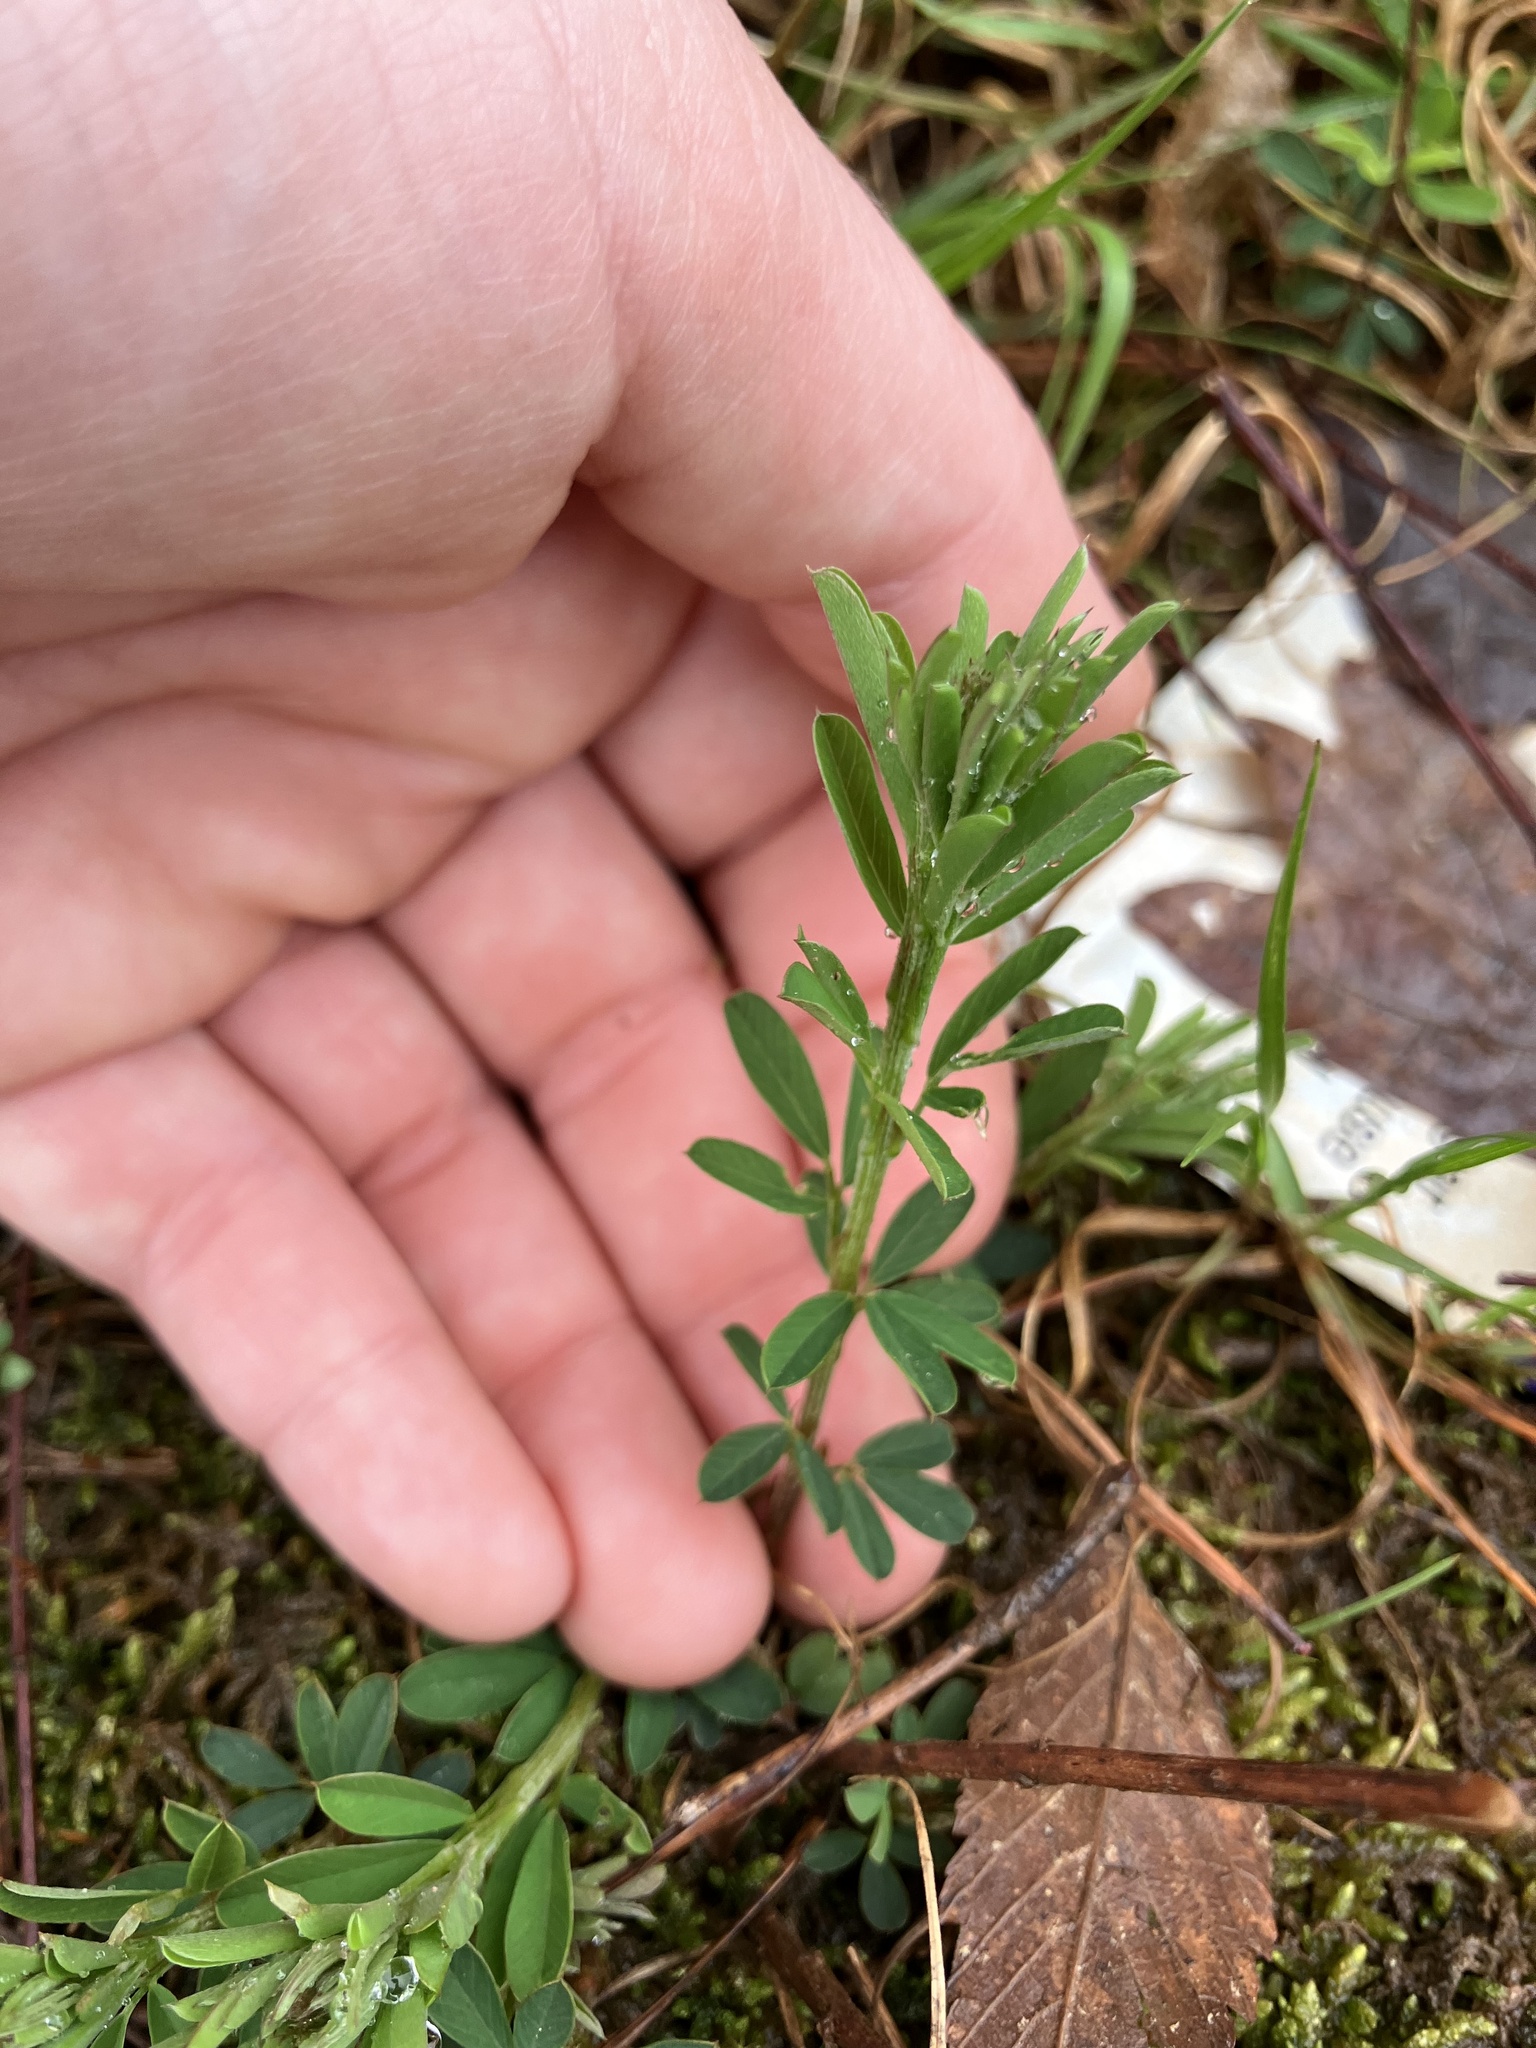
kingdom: Plantae
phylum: Tracheophyta
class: Magnoliopsida
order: Fabales
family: Fabaceae
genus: Lespedeza
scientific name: Lespedeza cuneata
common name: Chinese bush-clover
